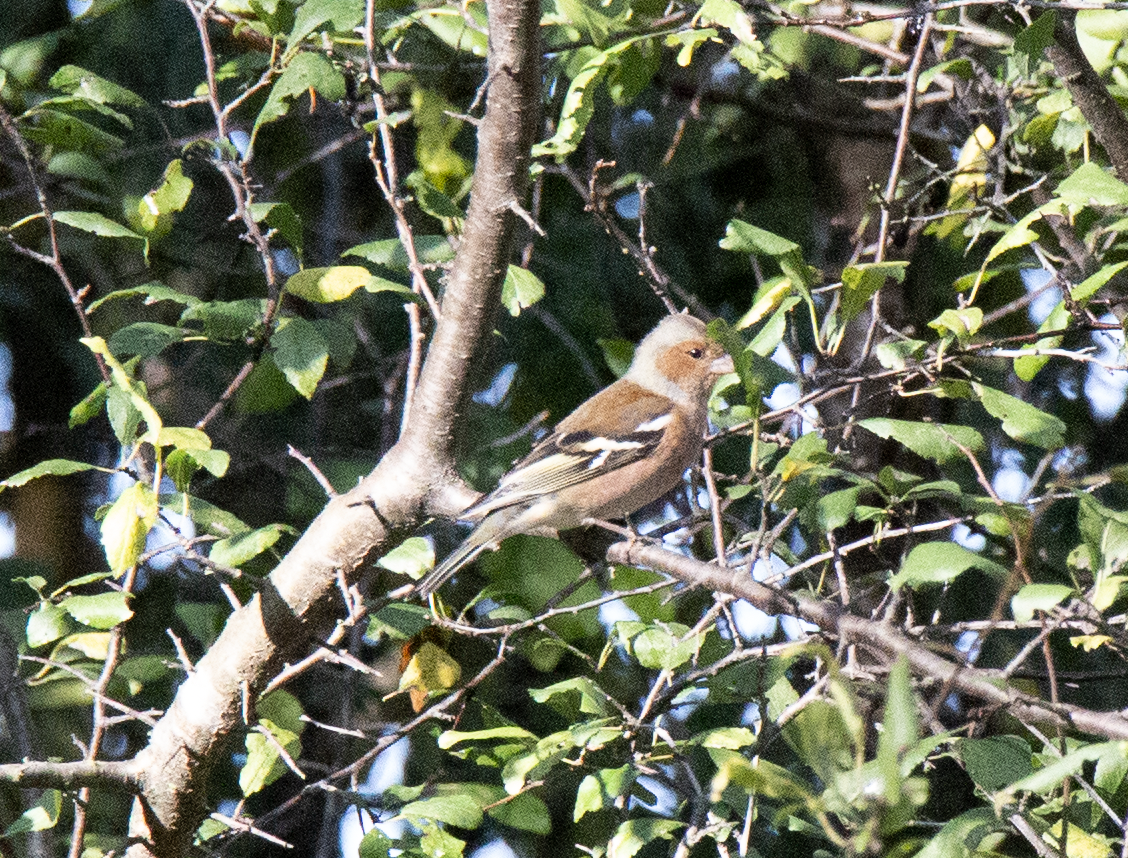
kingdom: Animalia
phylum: Chordata
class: Aves
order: Passeriformes
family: Fringillidae
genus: Fringilla
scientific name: Fringilla coelebs
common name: Common chaffinch
